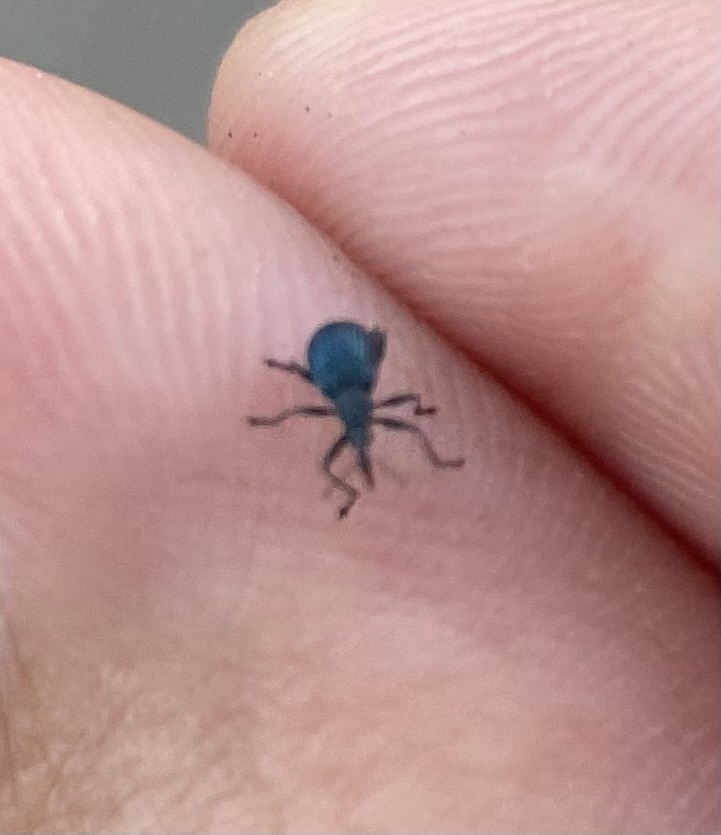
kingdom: Animalia
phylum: Arthropoda
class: Insecta
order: Coleoptera
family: Apionidae
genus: Oxystoma
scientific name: Oxystoma pomonae
